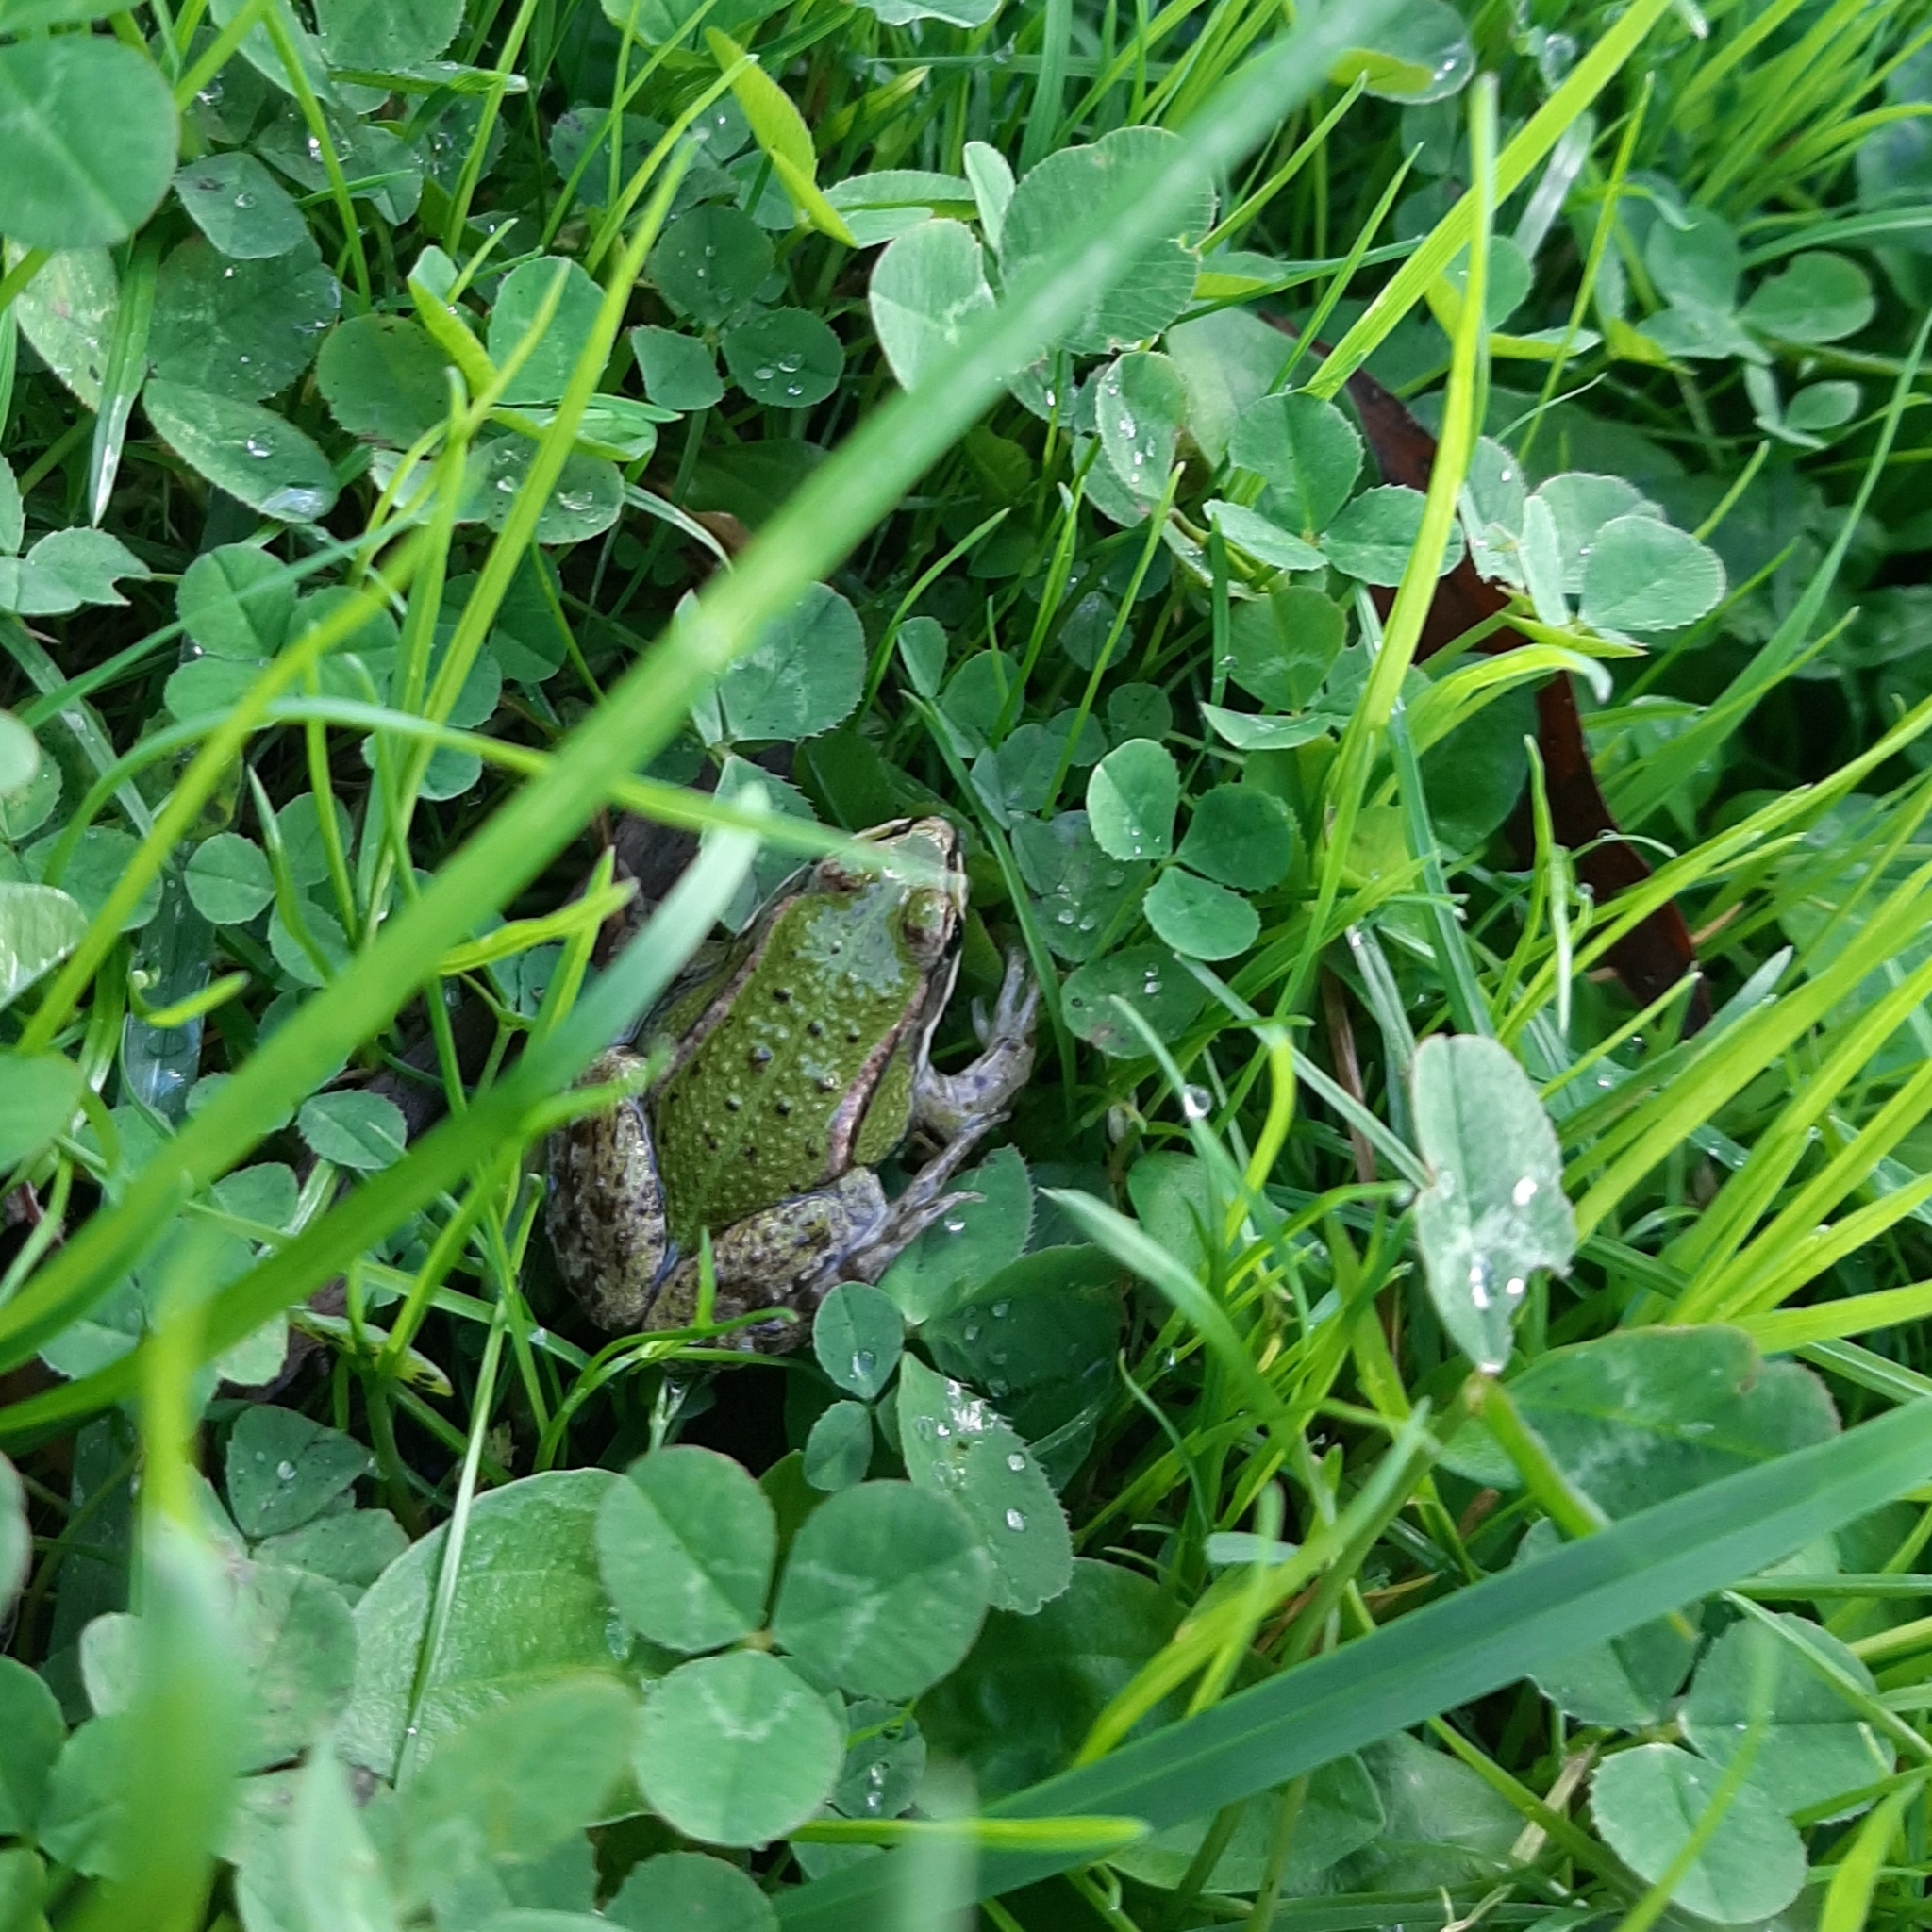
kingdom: Animalia
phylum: Chordata
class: Amphibia
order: Anura
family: Ranidae
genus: Pelophylax
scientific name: Pelophylax
